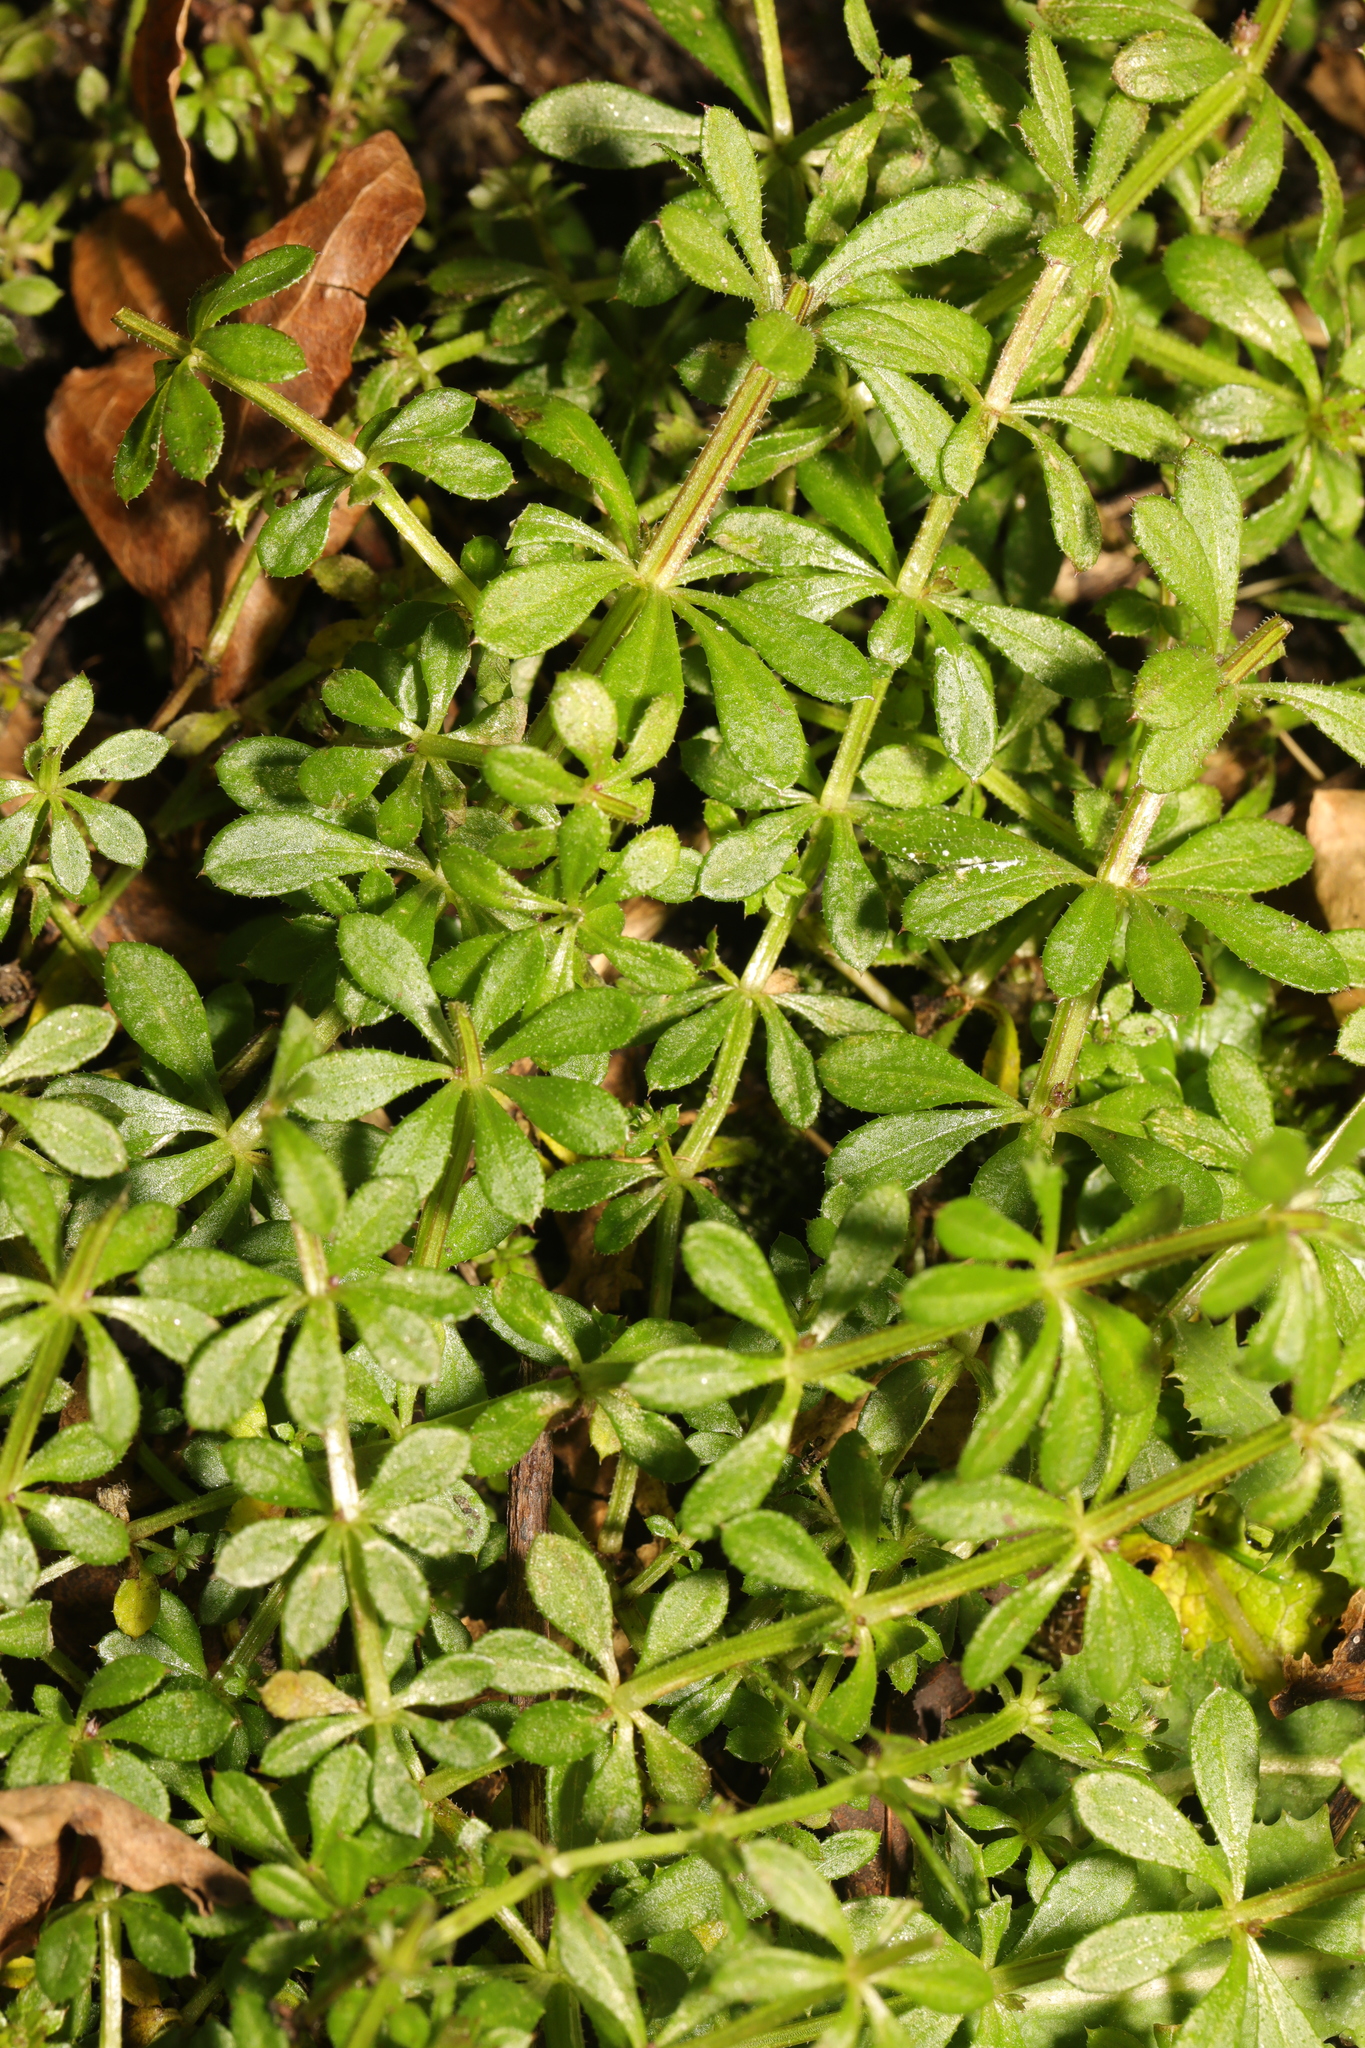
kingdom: Plantae
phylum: Tracheophyta
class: Magnoliopsida
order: Gentianales
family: Rubiaceae
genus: Galium
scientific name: Galium aparine
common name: Cleavers
